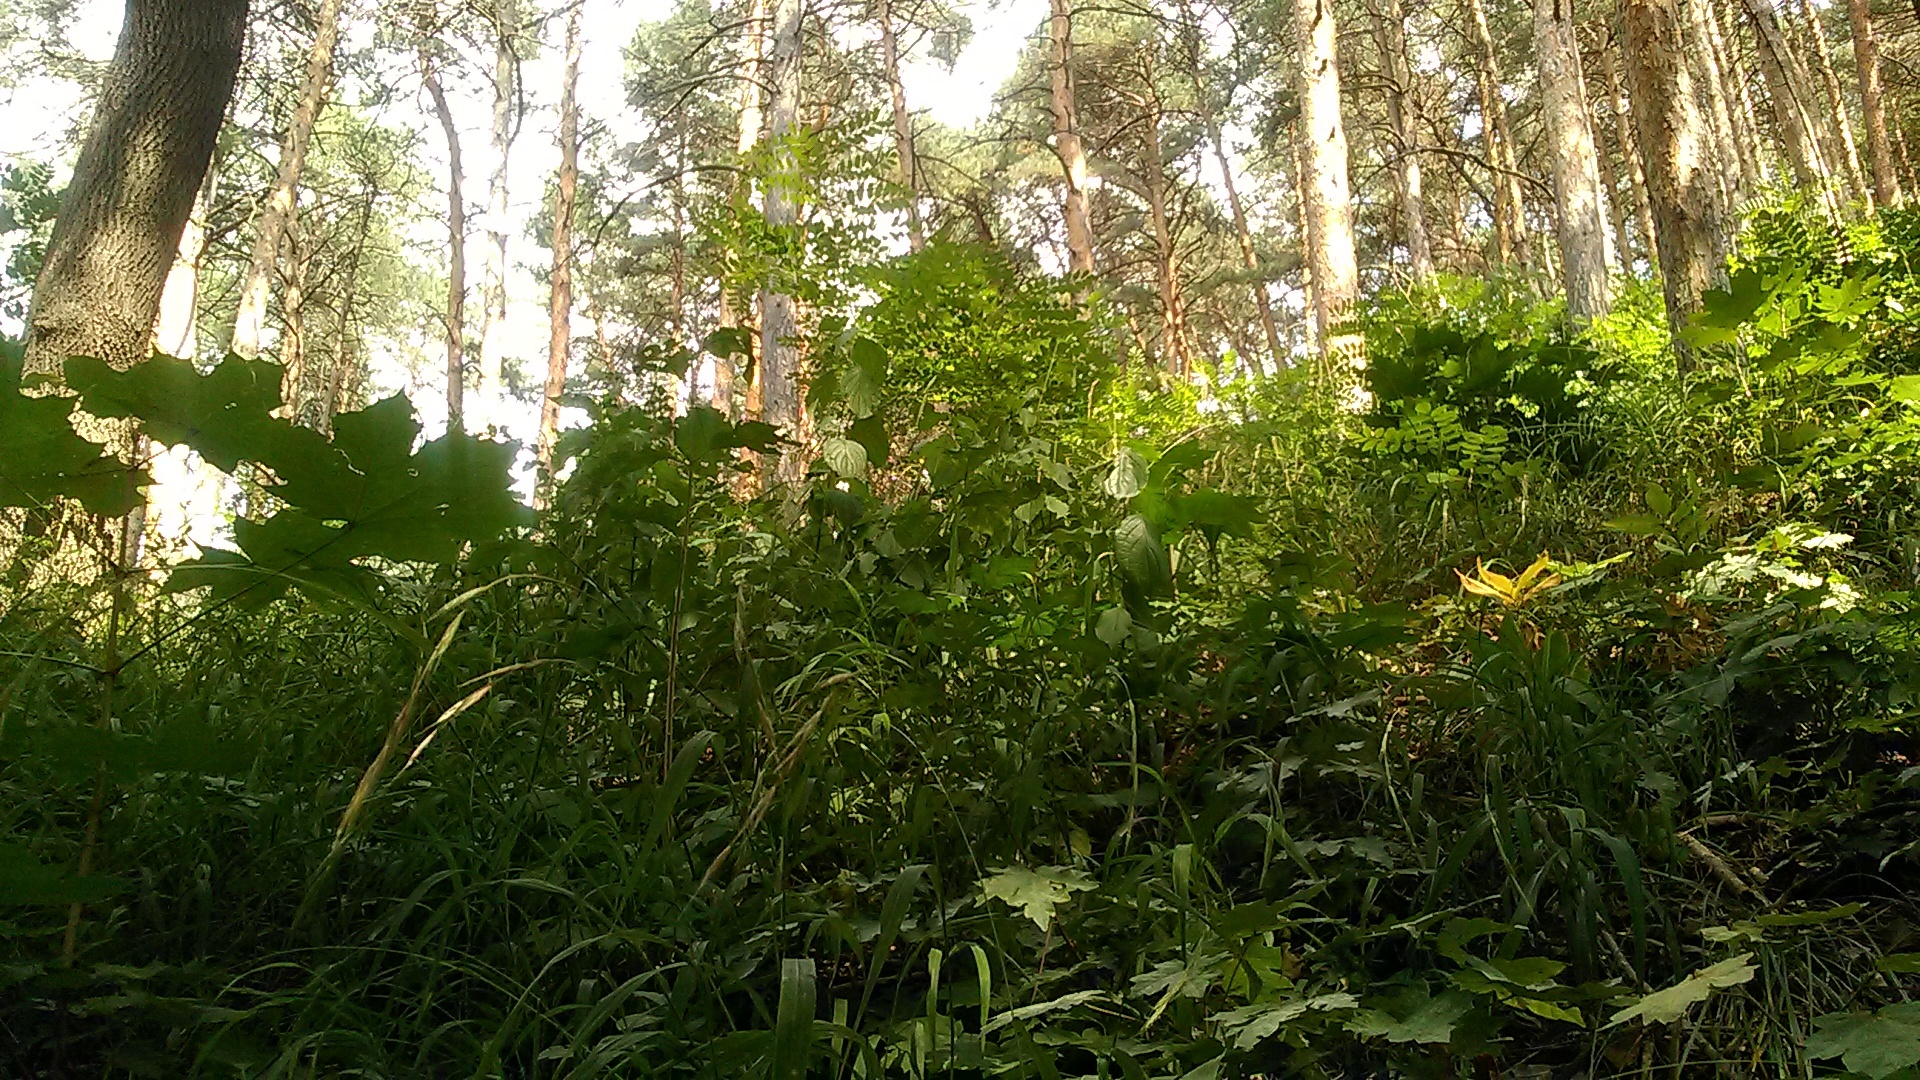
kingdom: Plantae
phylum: Tracheophyta
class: Liliopsida
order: Poales
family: Poaceae
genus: Brachypodium
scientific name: Brachypodium sylvaticum
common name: False-brome
